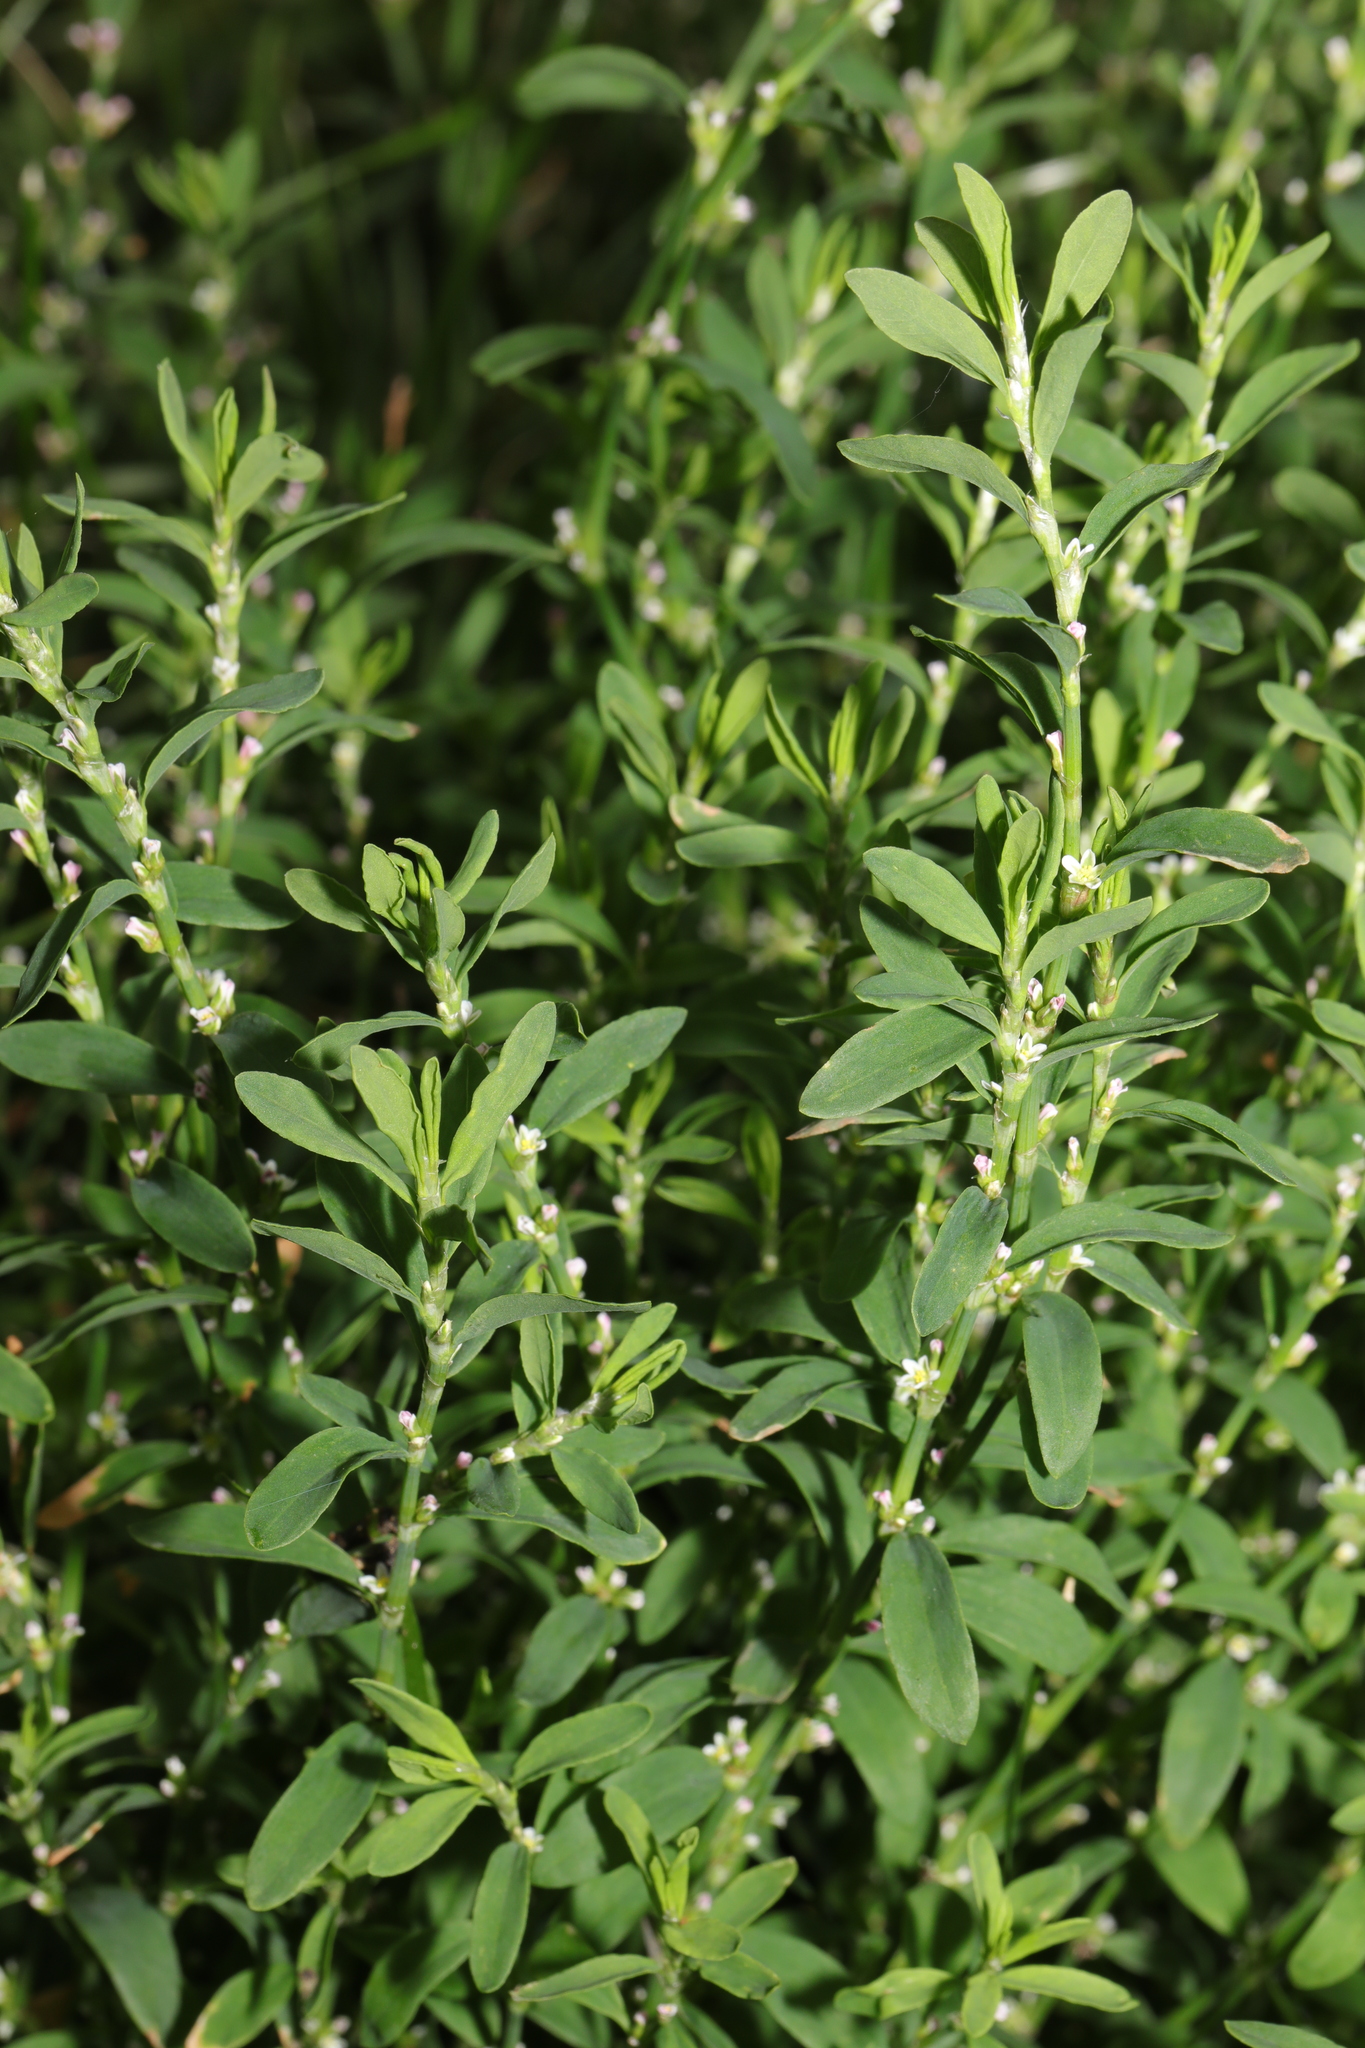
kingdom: Plantae
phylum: Tracheophyta
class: Magnoliopsida
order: Caryophyllales
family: Polygonaceae
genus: Polygonum
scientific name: Polygonum aviculare
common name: Prostrate knotweed
